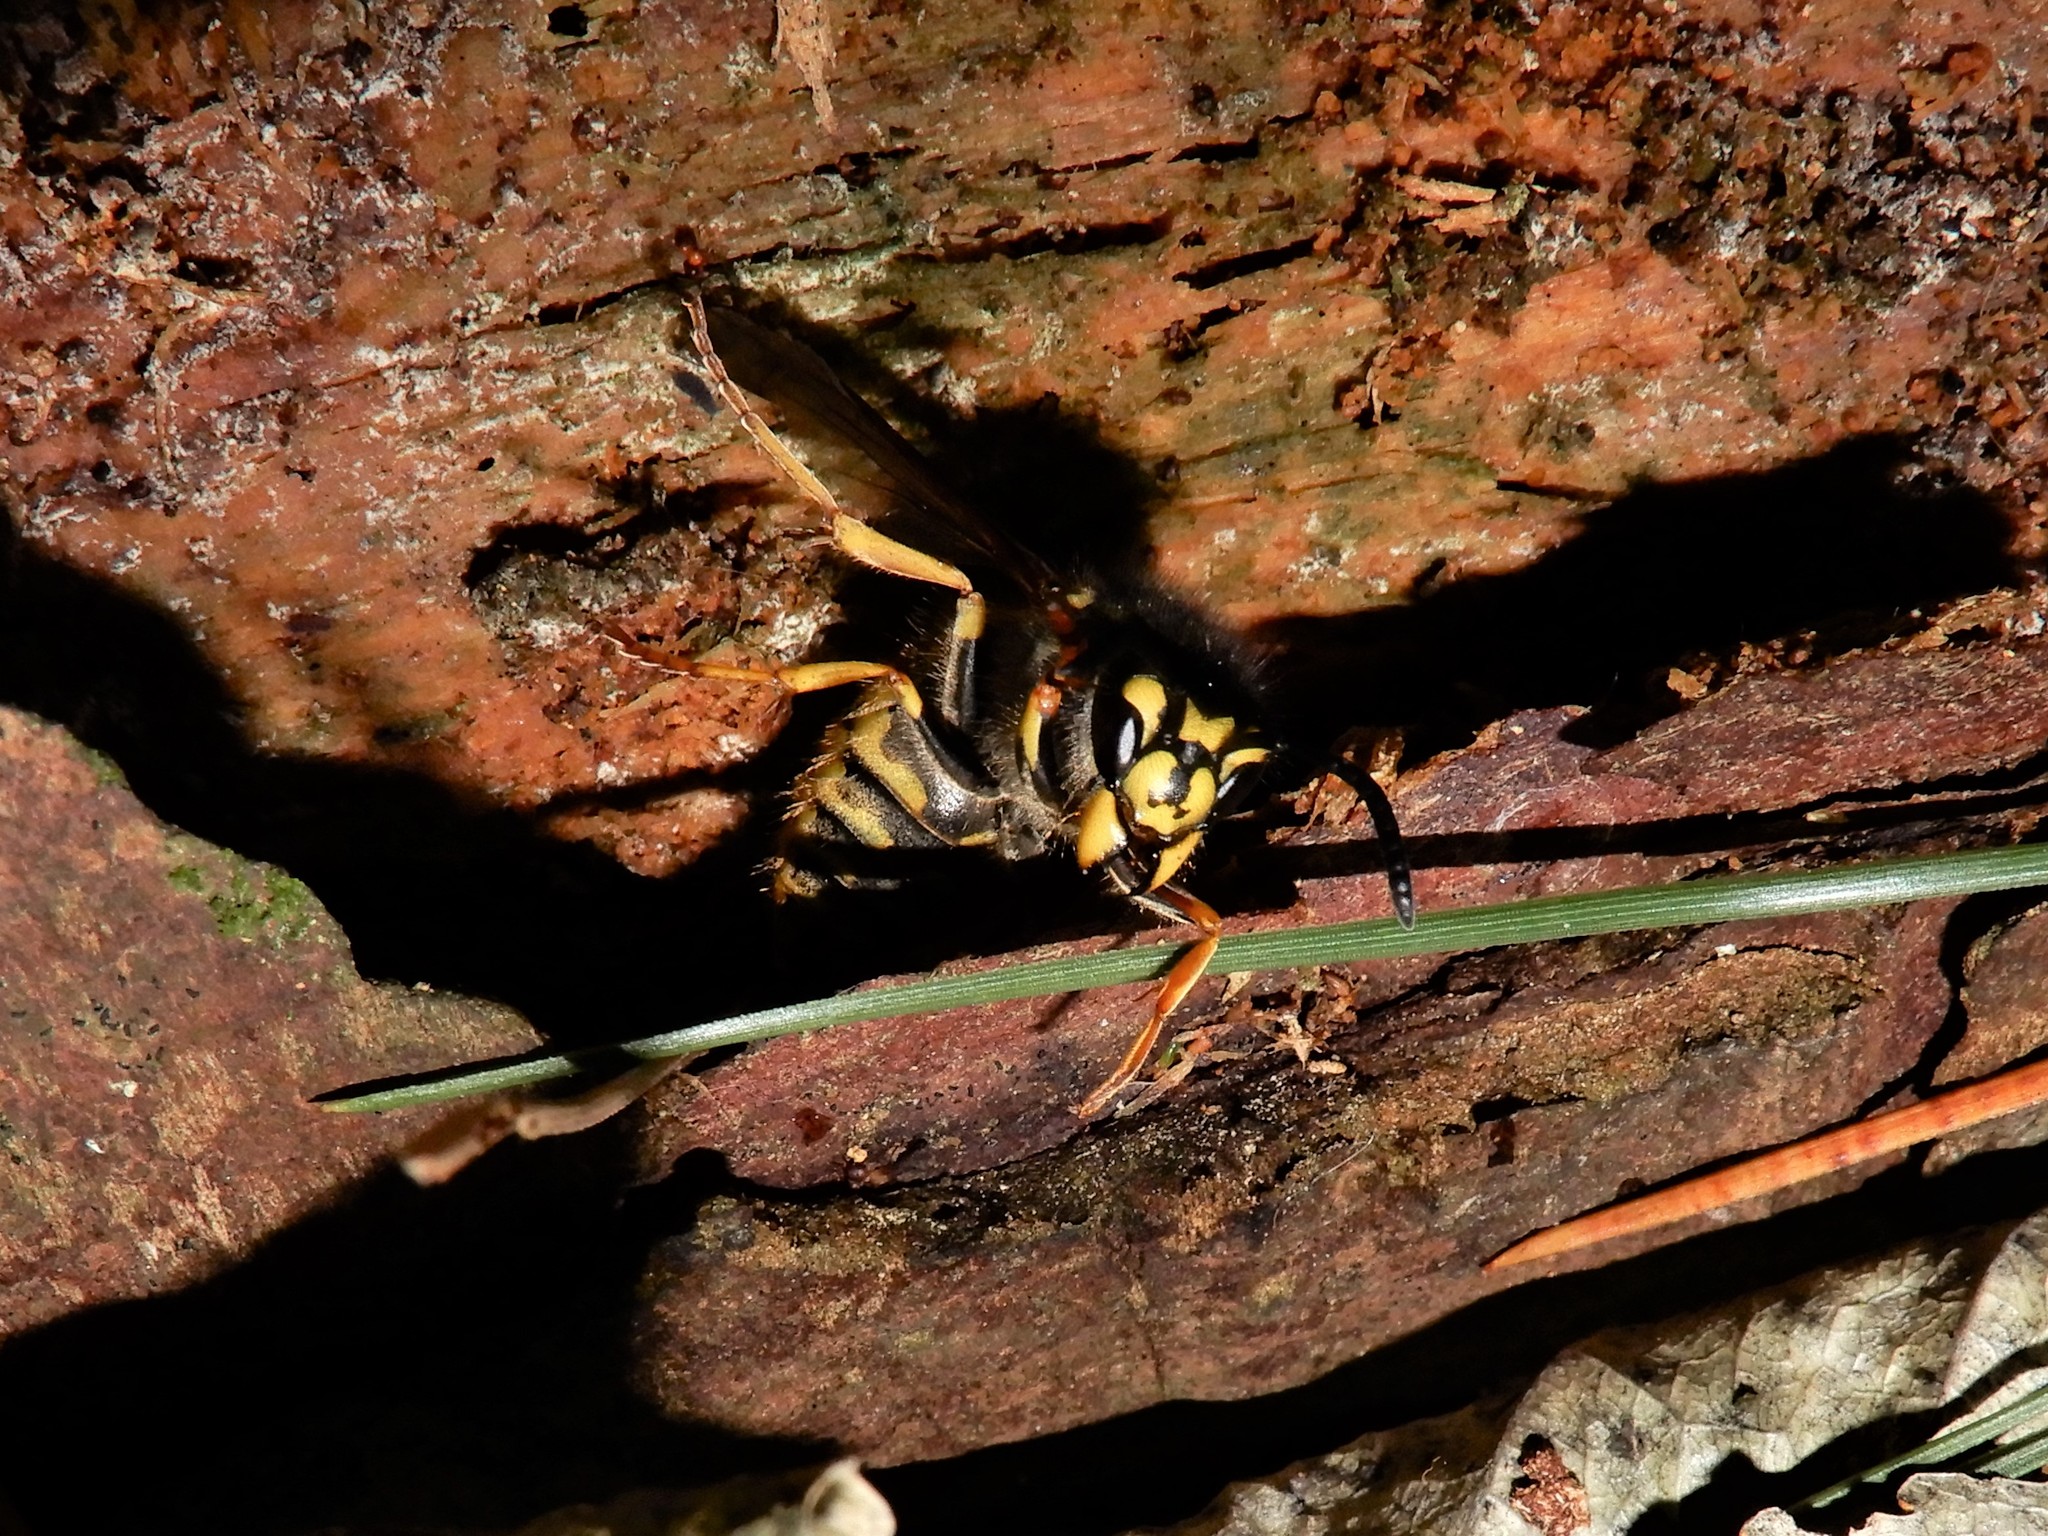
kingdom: Animalia
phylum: Arthropoda
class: Insecta
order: Hymenoptera
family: Vespidae
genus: Vespula
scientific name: Vespula germanica
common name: German wasp
